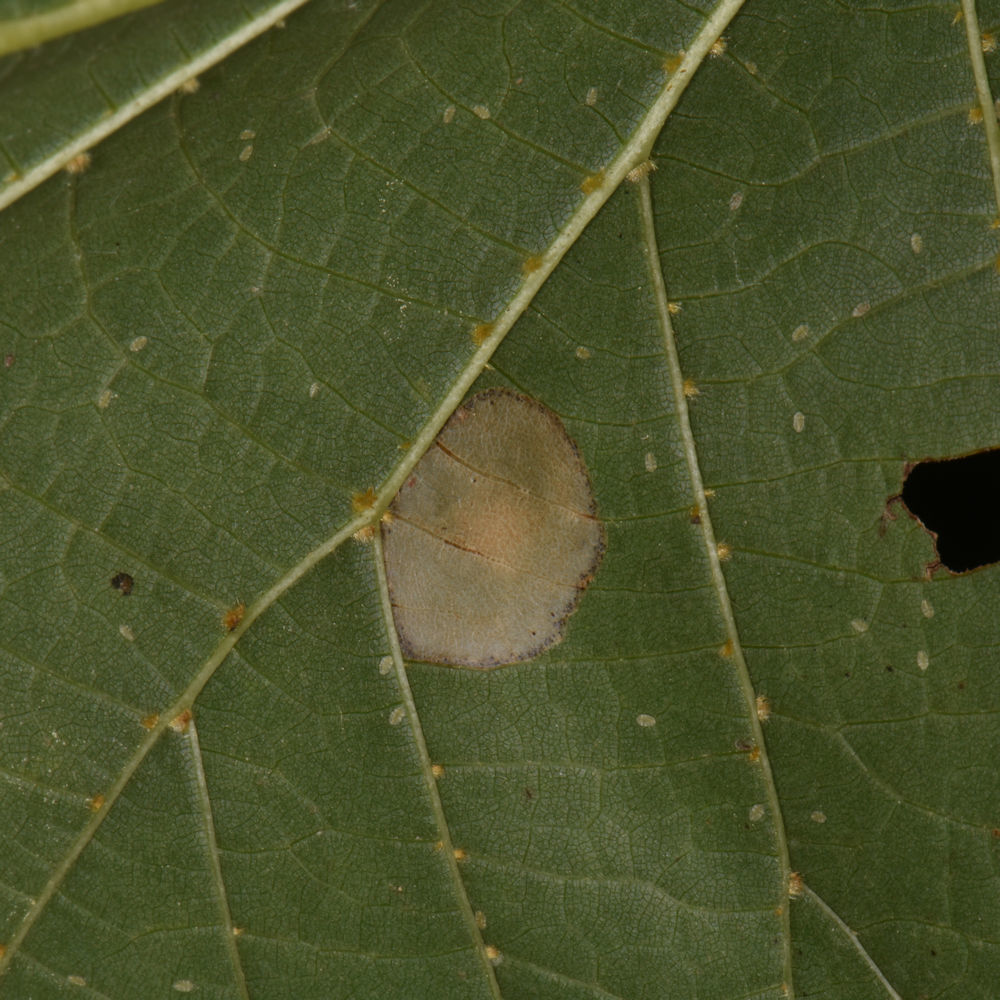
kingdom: Animalia
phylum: Arthropoda
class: Insecta
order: Lepidoptera
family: Gracillariidae
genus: Phyllonorycter
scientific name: Phyllonorycter lucetiella
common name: Basswood miner moth
